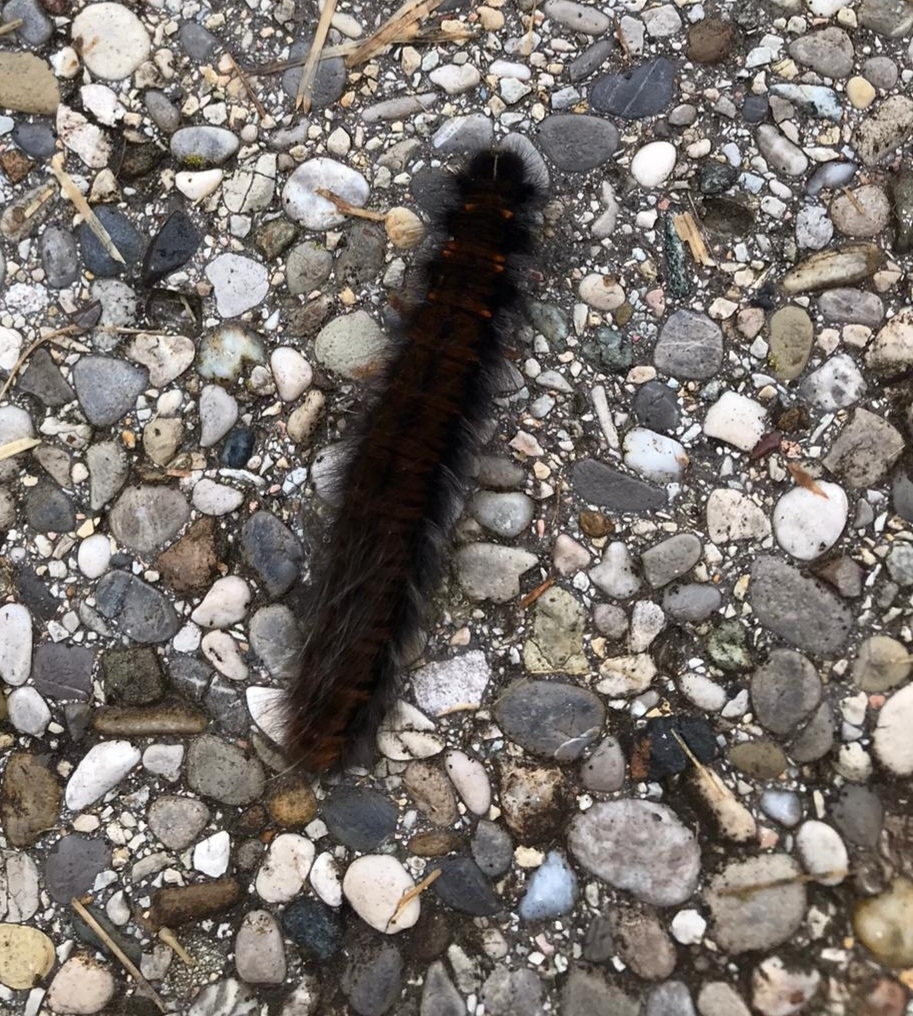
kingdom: Animalia
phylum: Arthropoda
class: Insecta
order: Lepidoptera
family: Lasiocampidae
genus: Macrothylacia
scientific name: Macrothylacia rubi
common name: Fox moth
